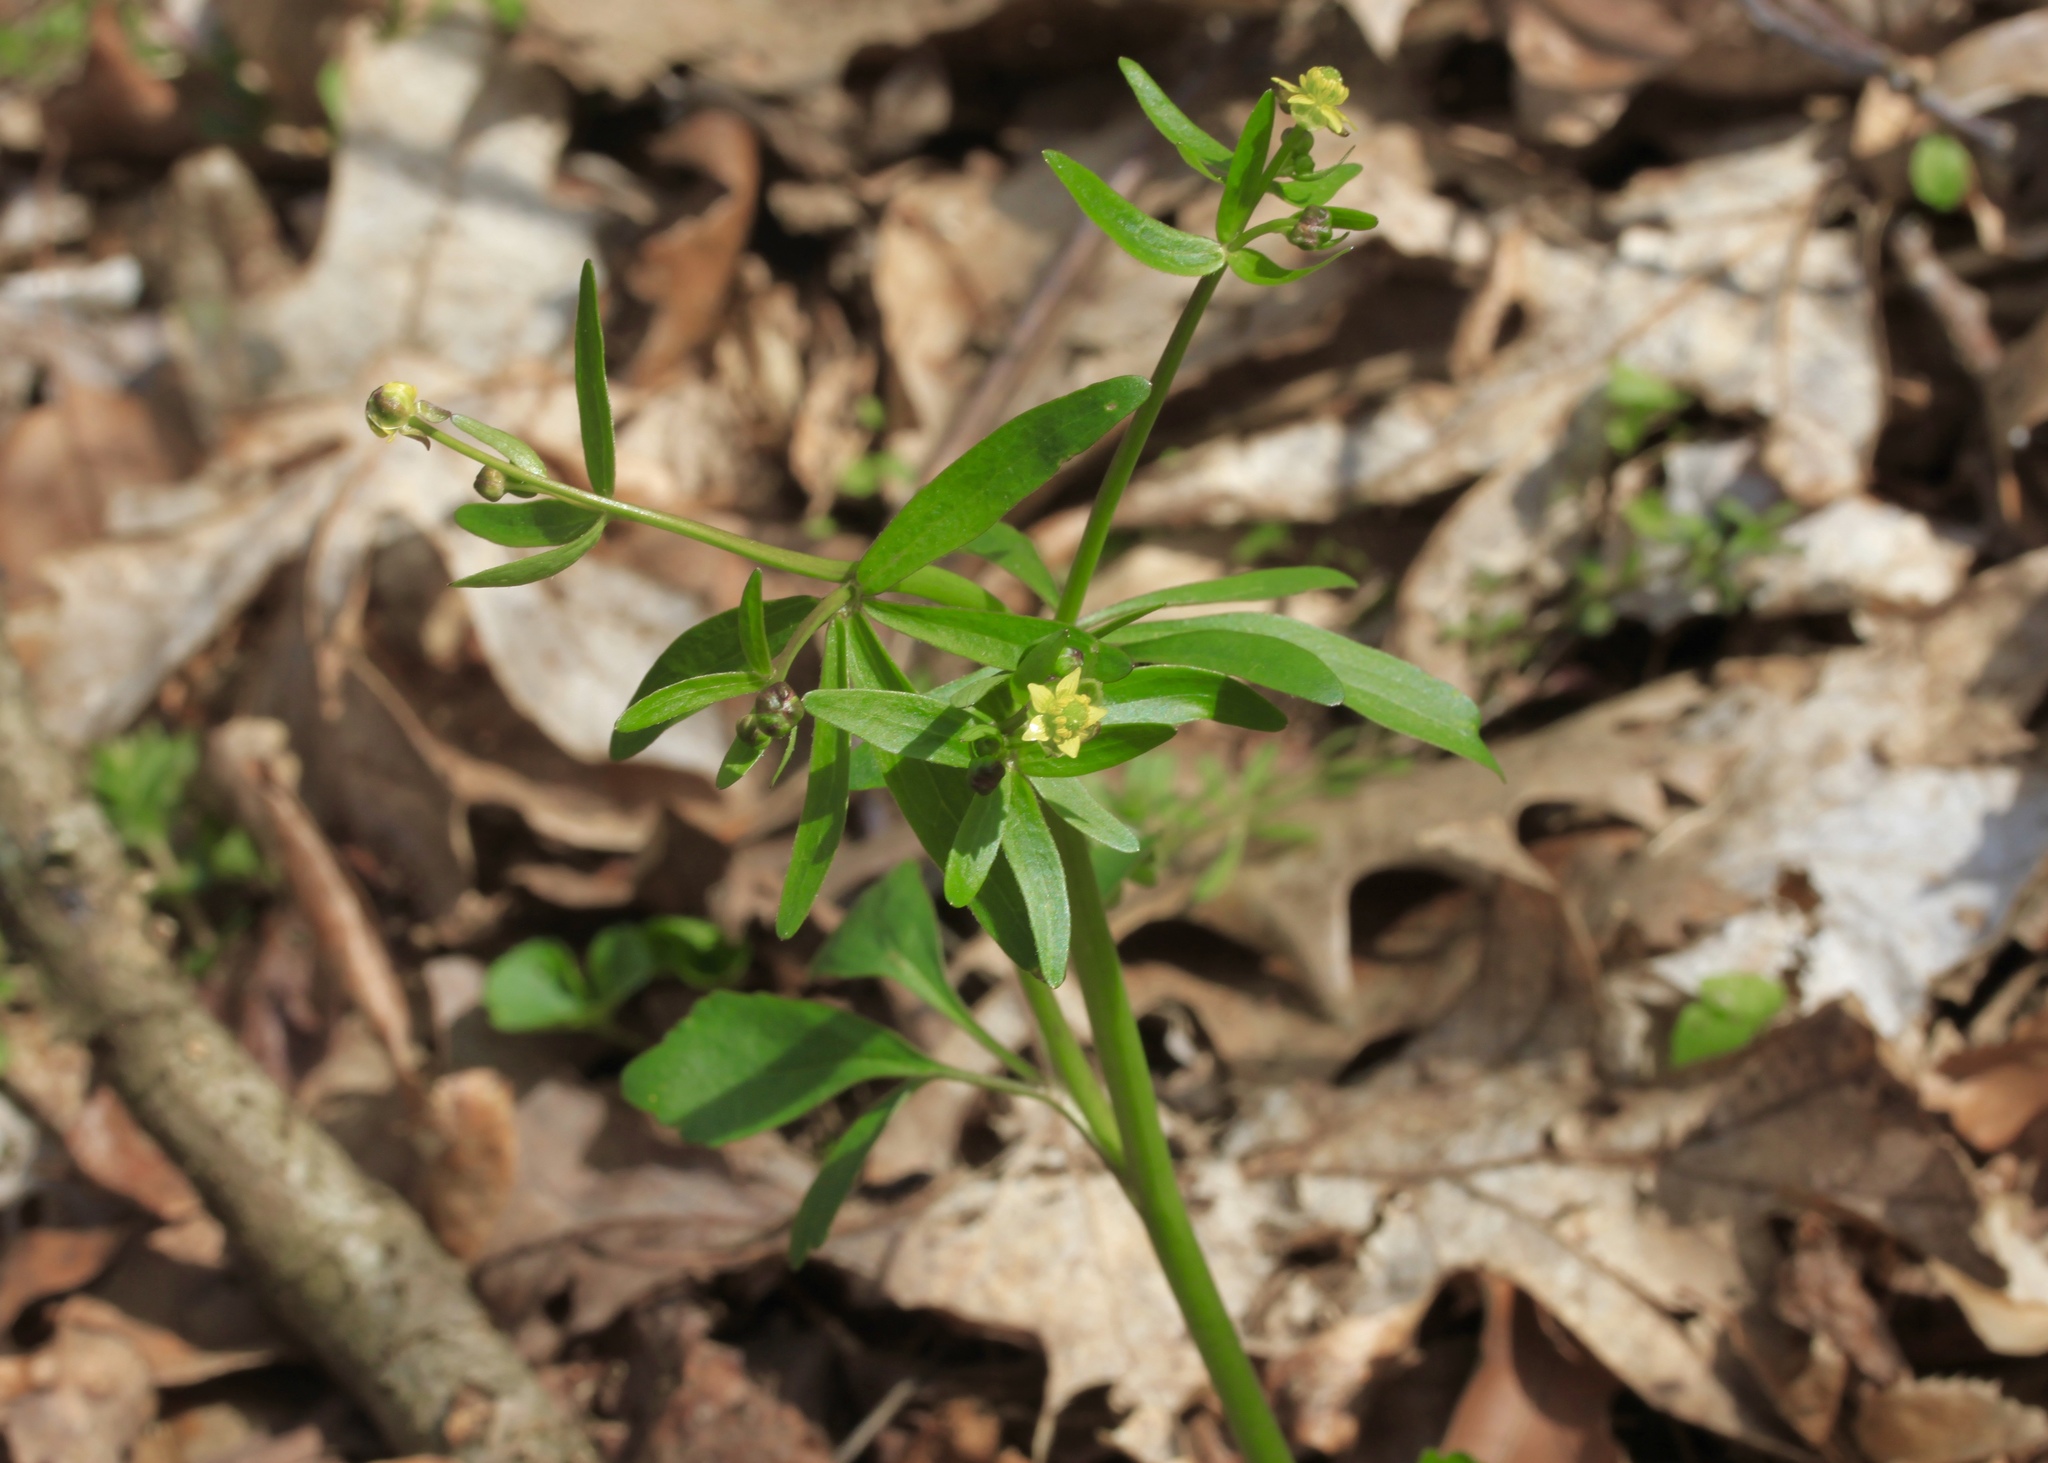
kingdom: Plantae
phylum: Tracheophyta
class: Magnoliopsida
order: Ranunculales
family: Ranunculaceae
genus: Ranunculus
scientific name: Ranunculus abortivus
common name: Early wood buttercup
